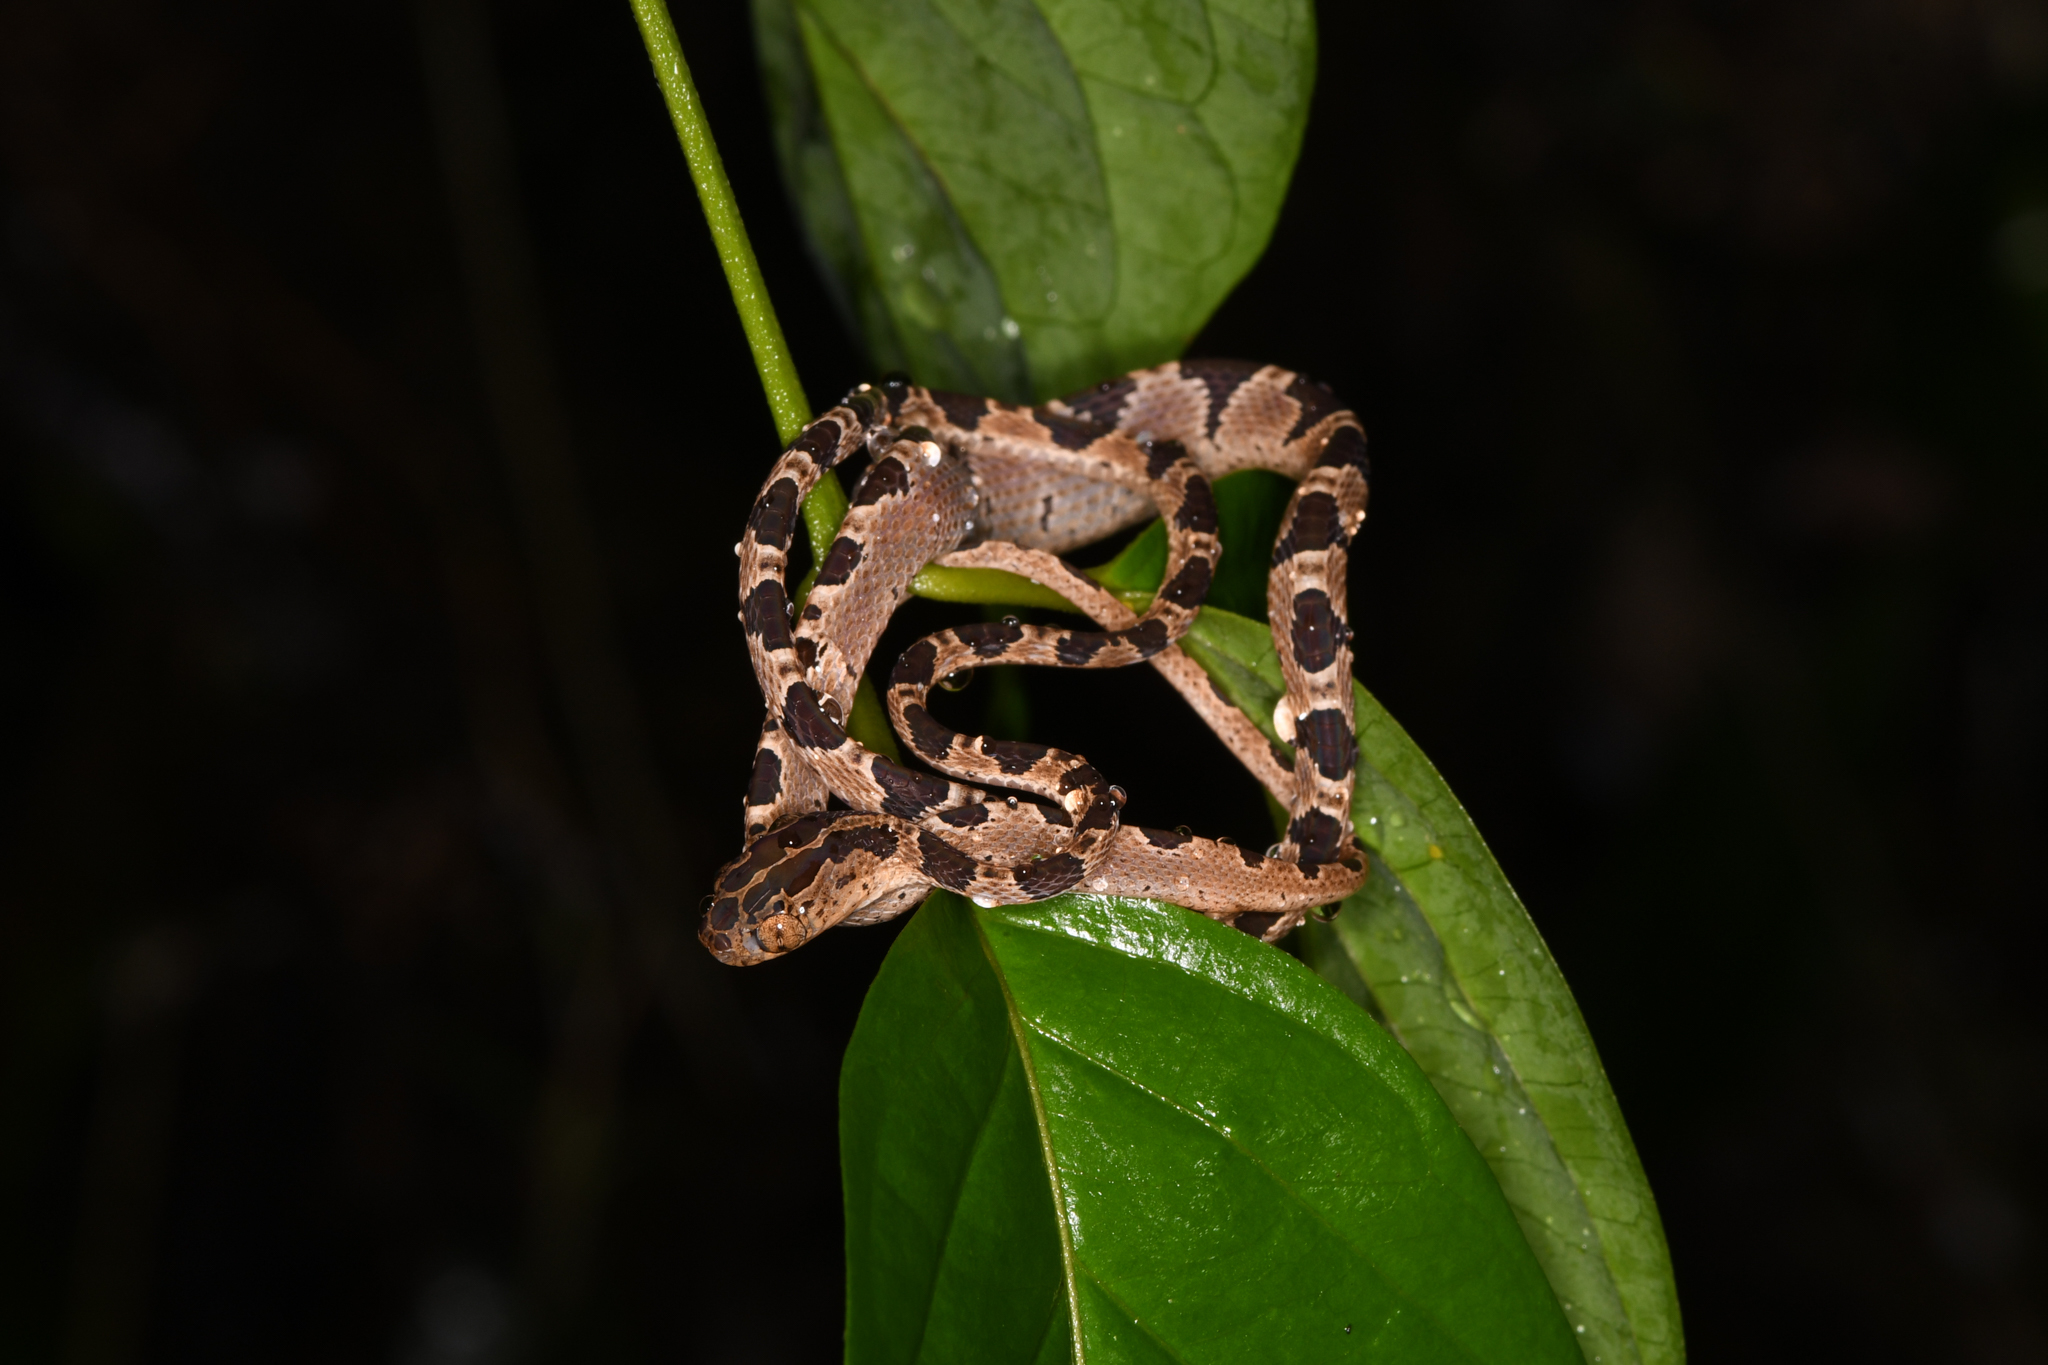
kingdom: Animalia
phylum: Chordata
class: Squamata
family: Colubridae
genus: Imantodes
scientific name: Imantodes cenchoa
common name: Blunthead tree snake
